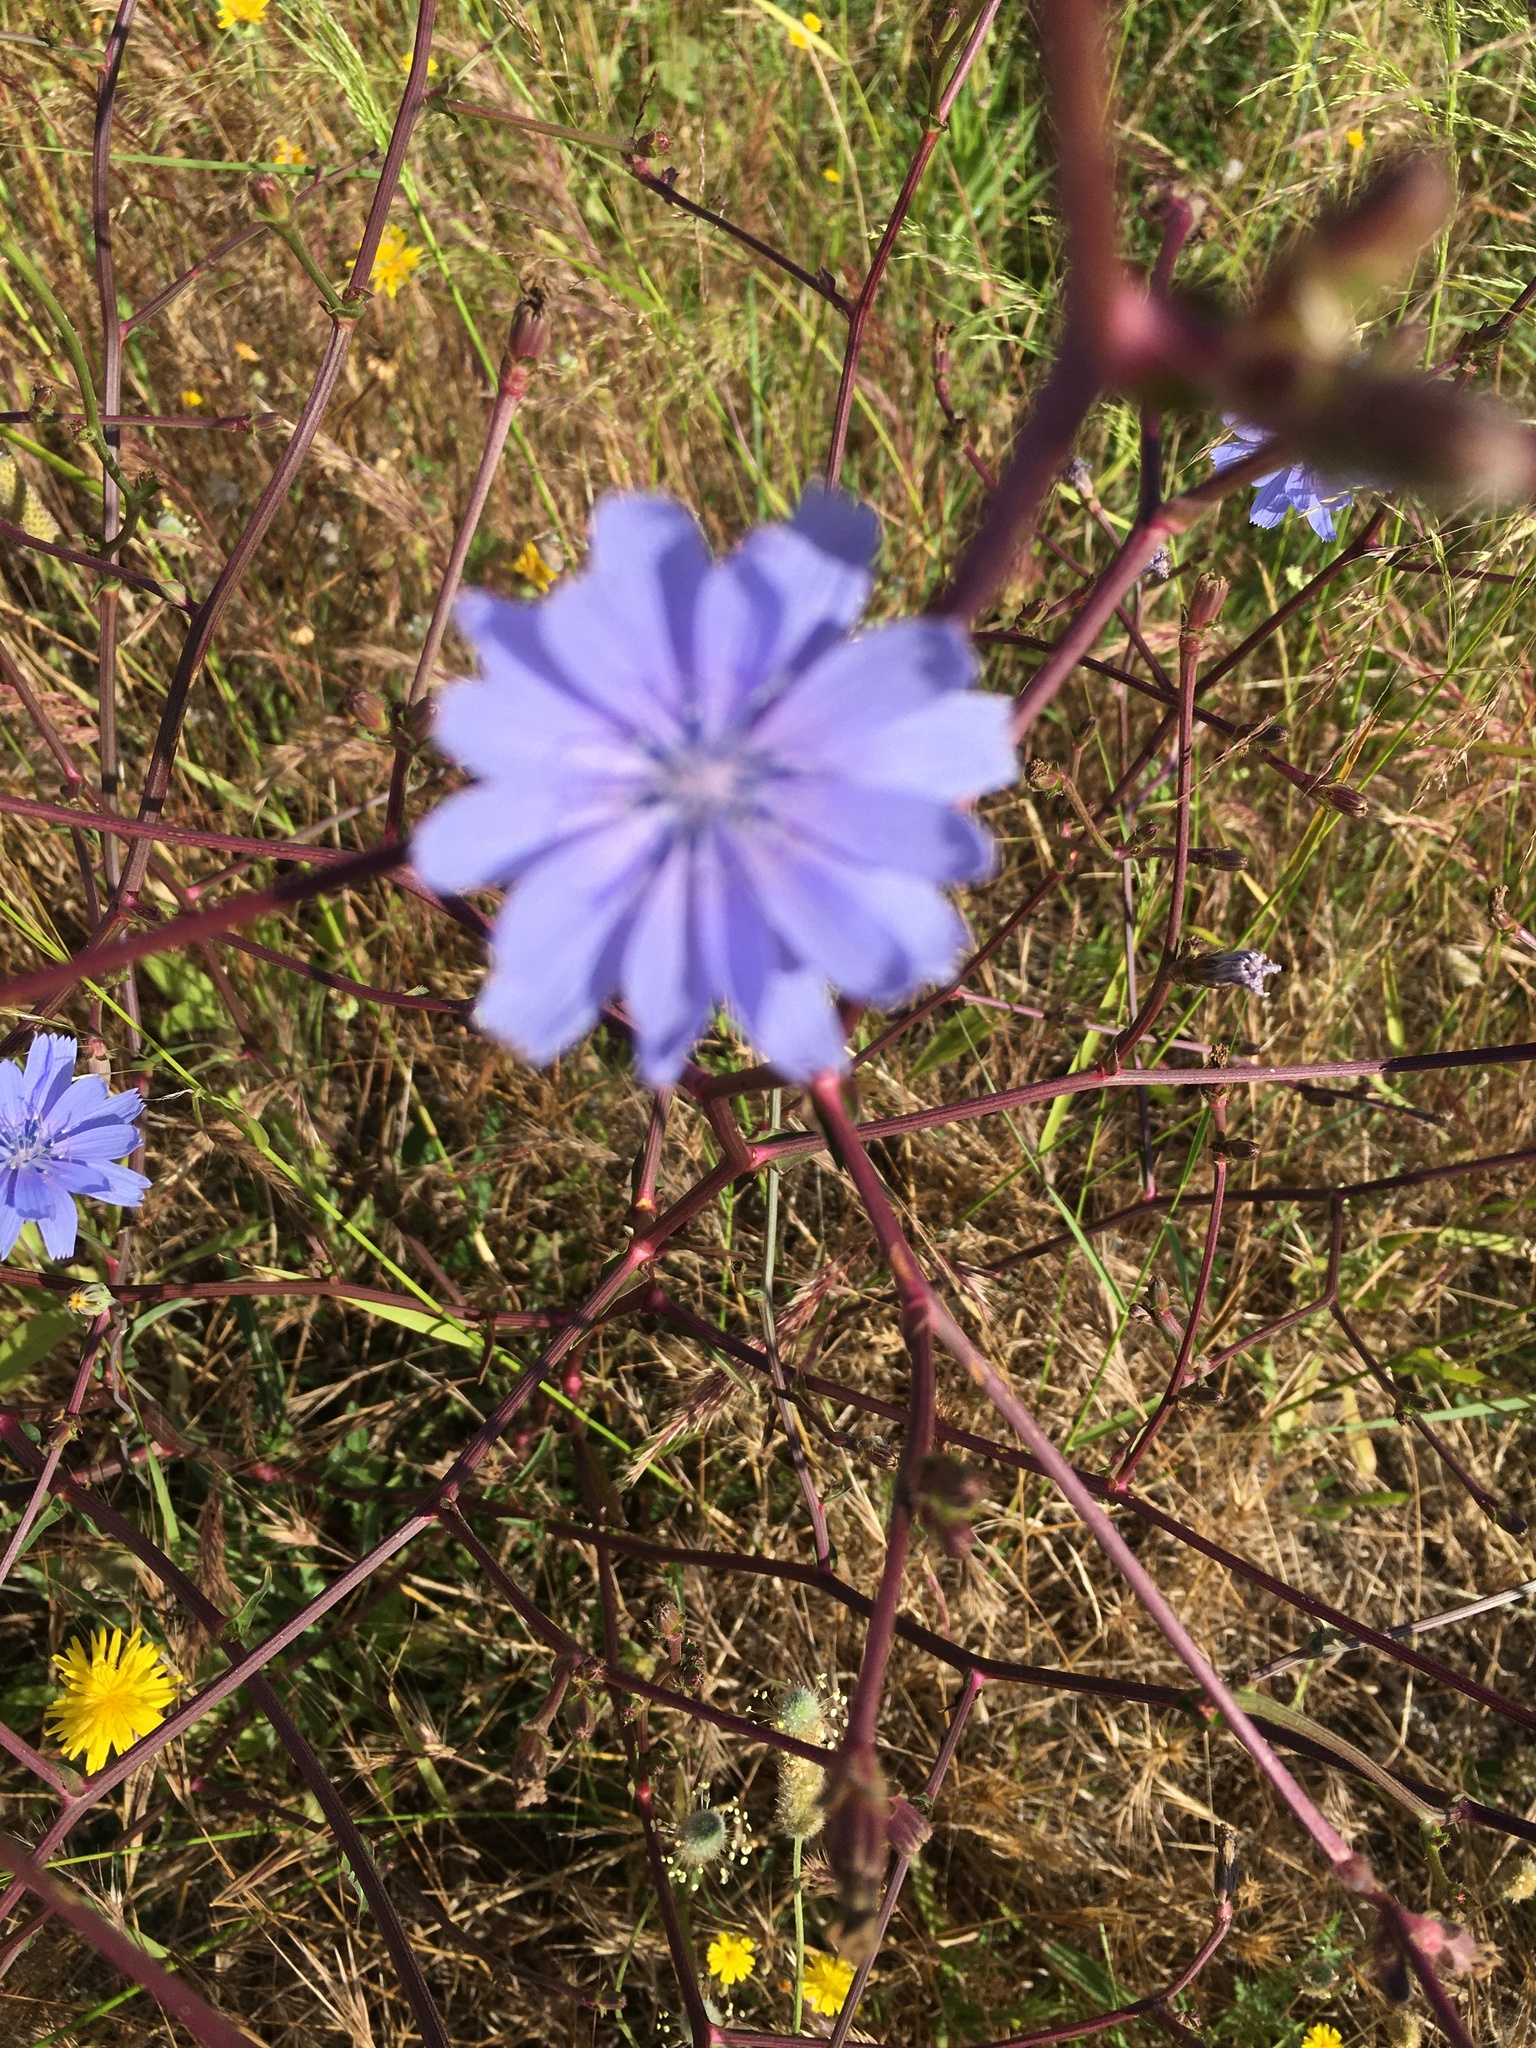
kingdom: Plantae
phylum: Tracheophyta
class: Magnoliopsida
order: Asterales
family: Asteraceae
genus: Cichorium
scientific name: Cichorium intybus
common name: Chicory
